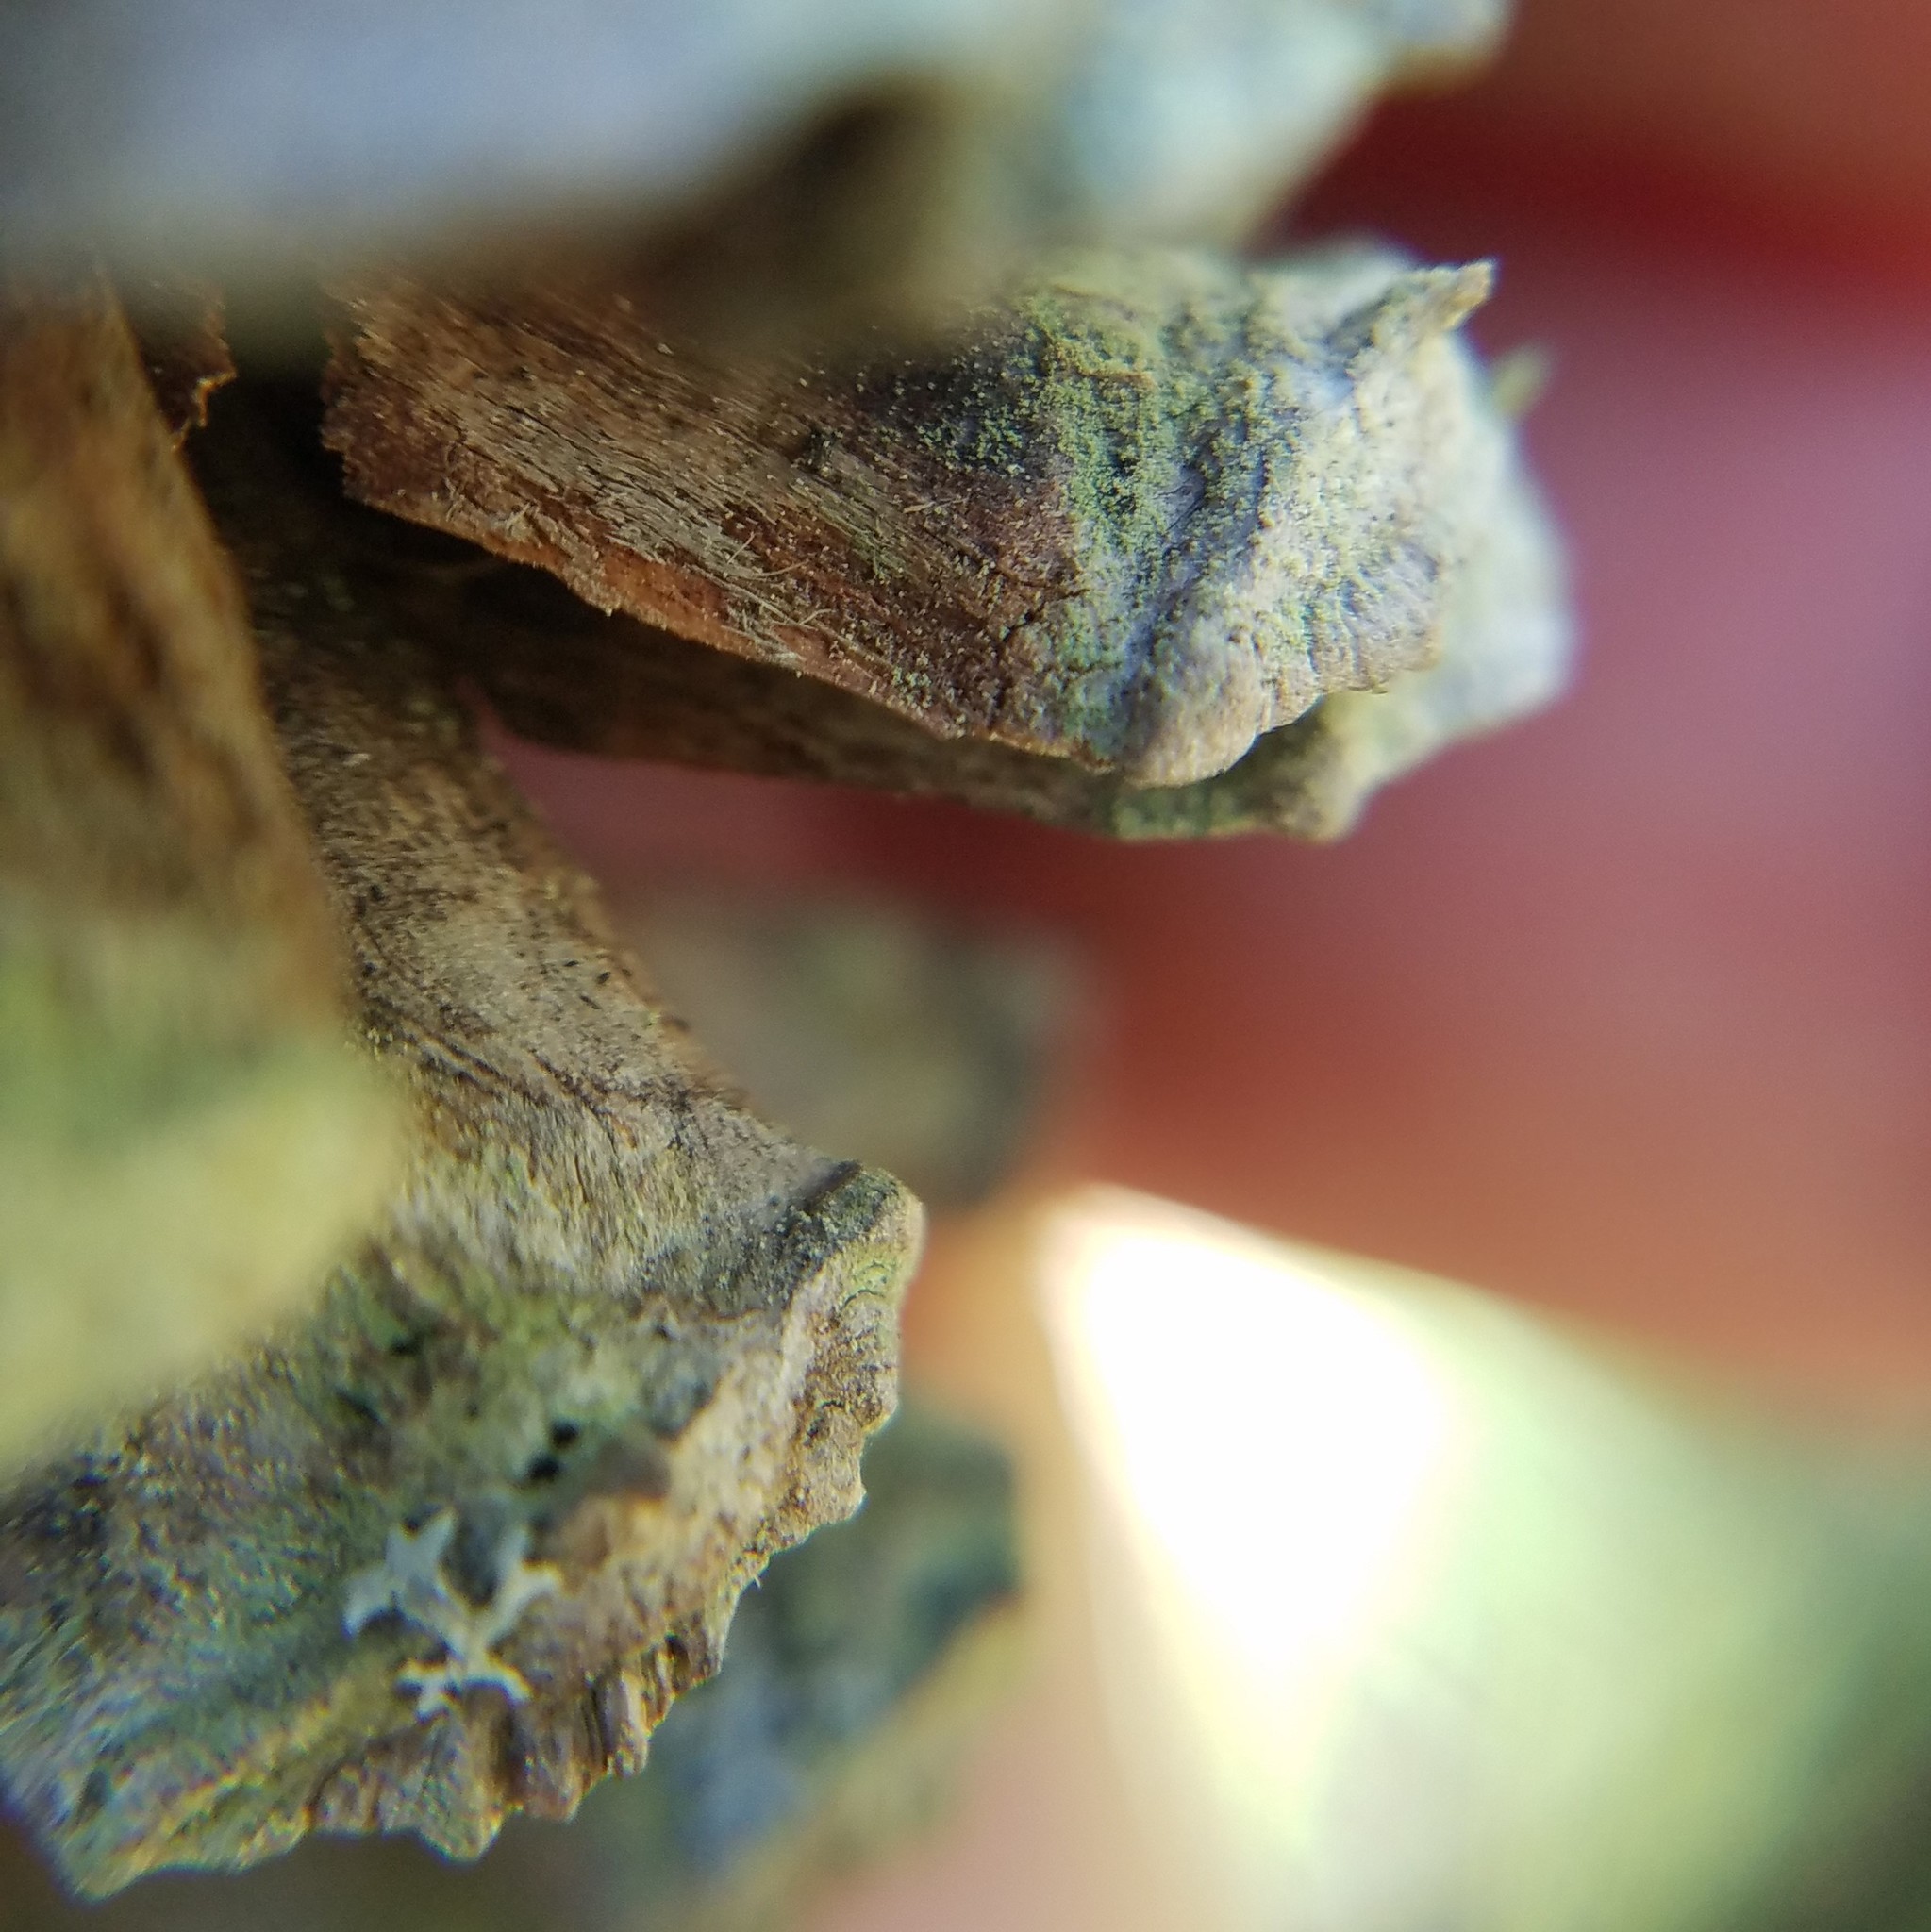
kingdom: Fungi
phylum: Ascomycota
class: Lecanoromycetes
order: Lecanorales
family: Lecanoraceae
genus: Lecanora
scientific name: Lecanora strobilina
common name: Mealy rim-lichen
